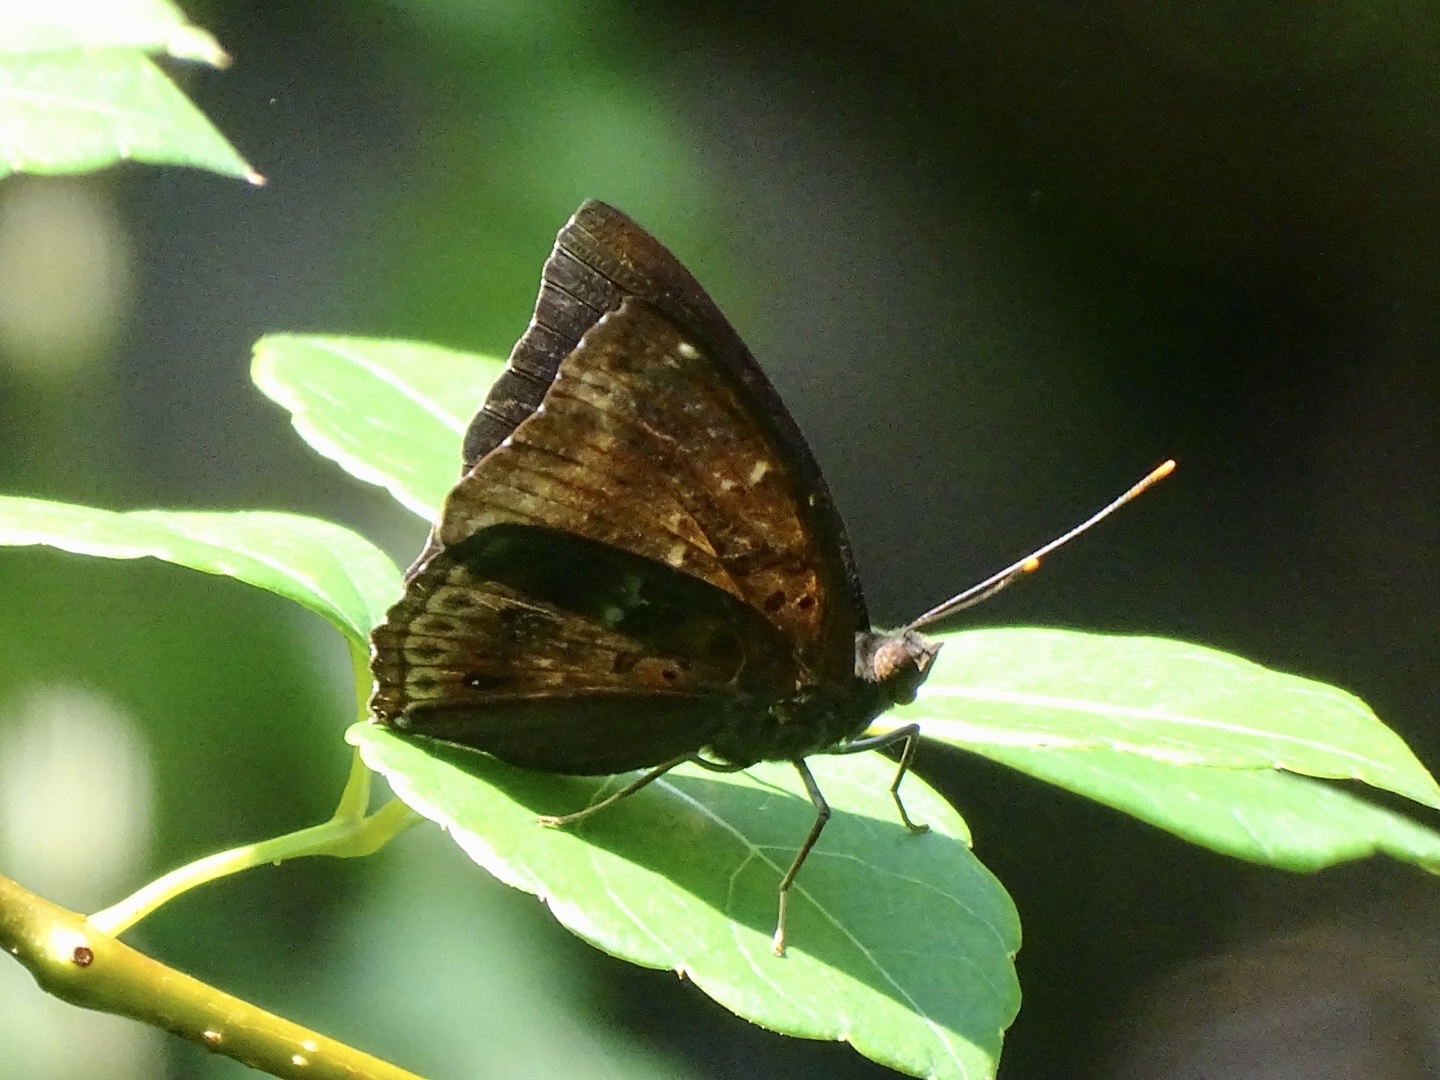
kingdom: Animalia
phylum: Arthropoda
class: Insecta
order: Lepidoptera
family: Nymphalidae
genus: Apatura
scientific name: Apatura Rohana spec
